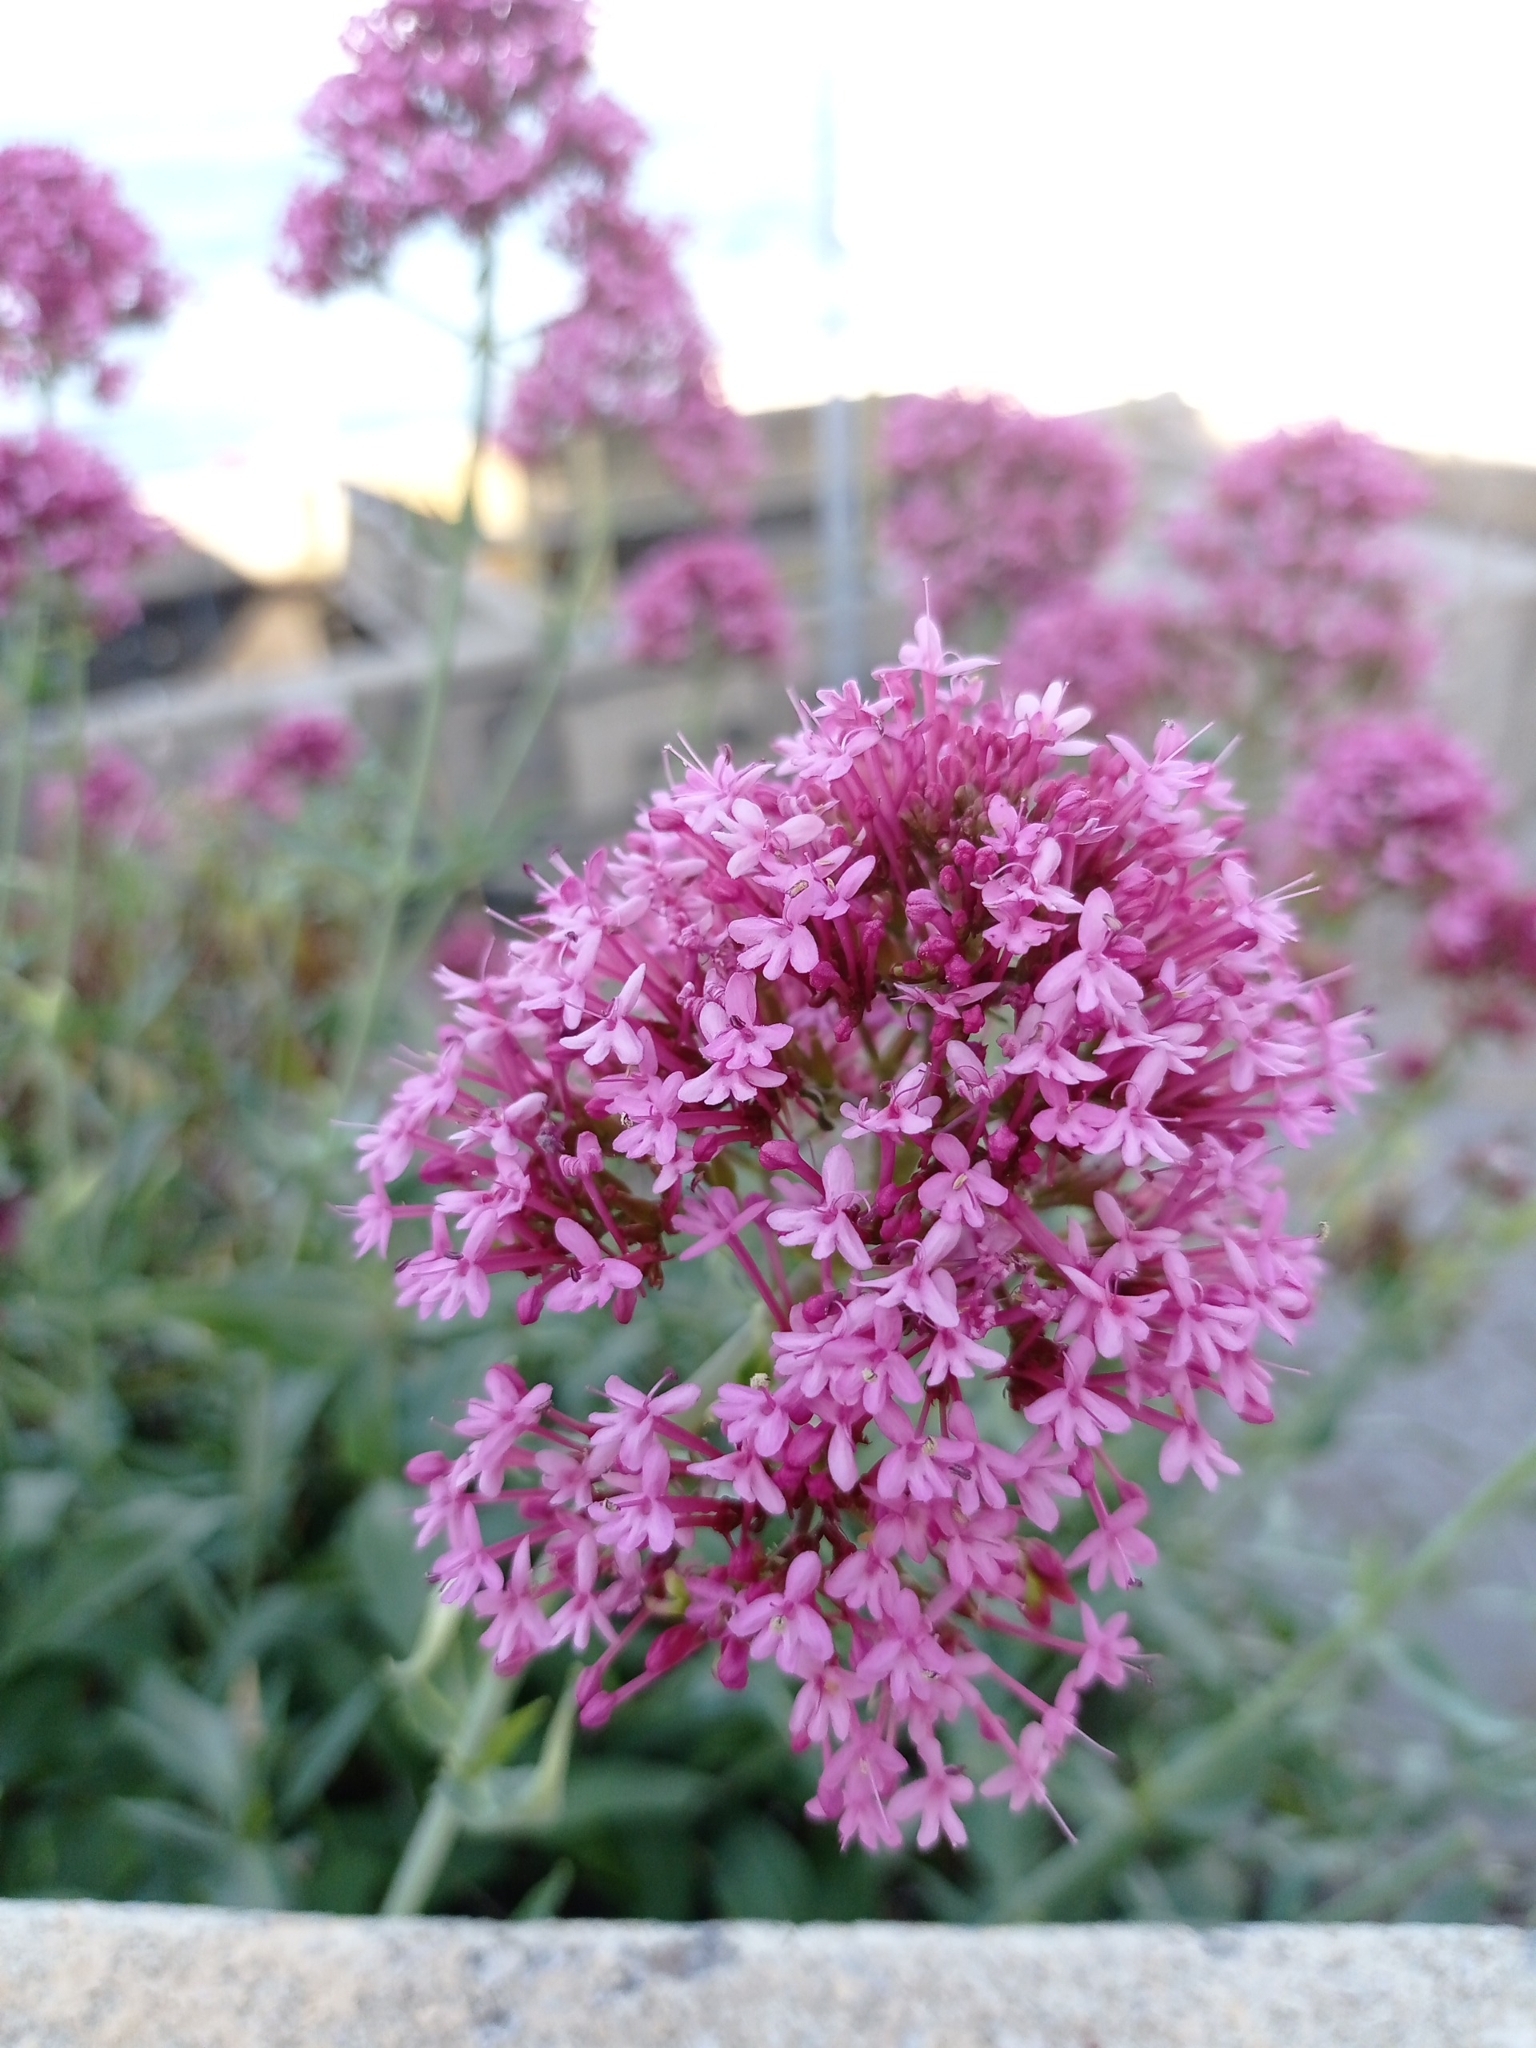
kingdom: Plantae
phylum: Tracheophyta
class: Magnoliopsida
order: Dipsacales
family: Caprifoliaceae
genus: Centranthus
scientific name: Centranthus ruber
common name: Red valerian
